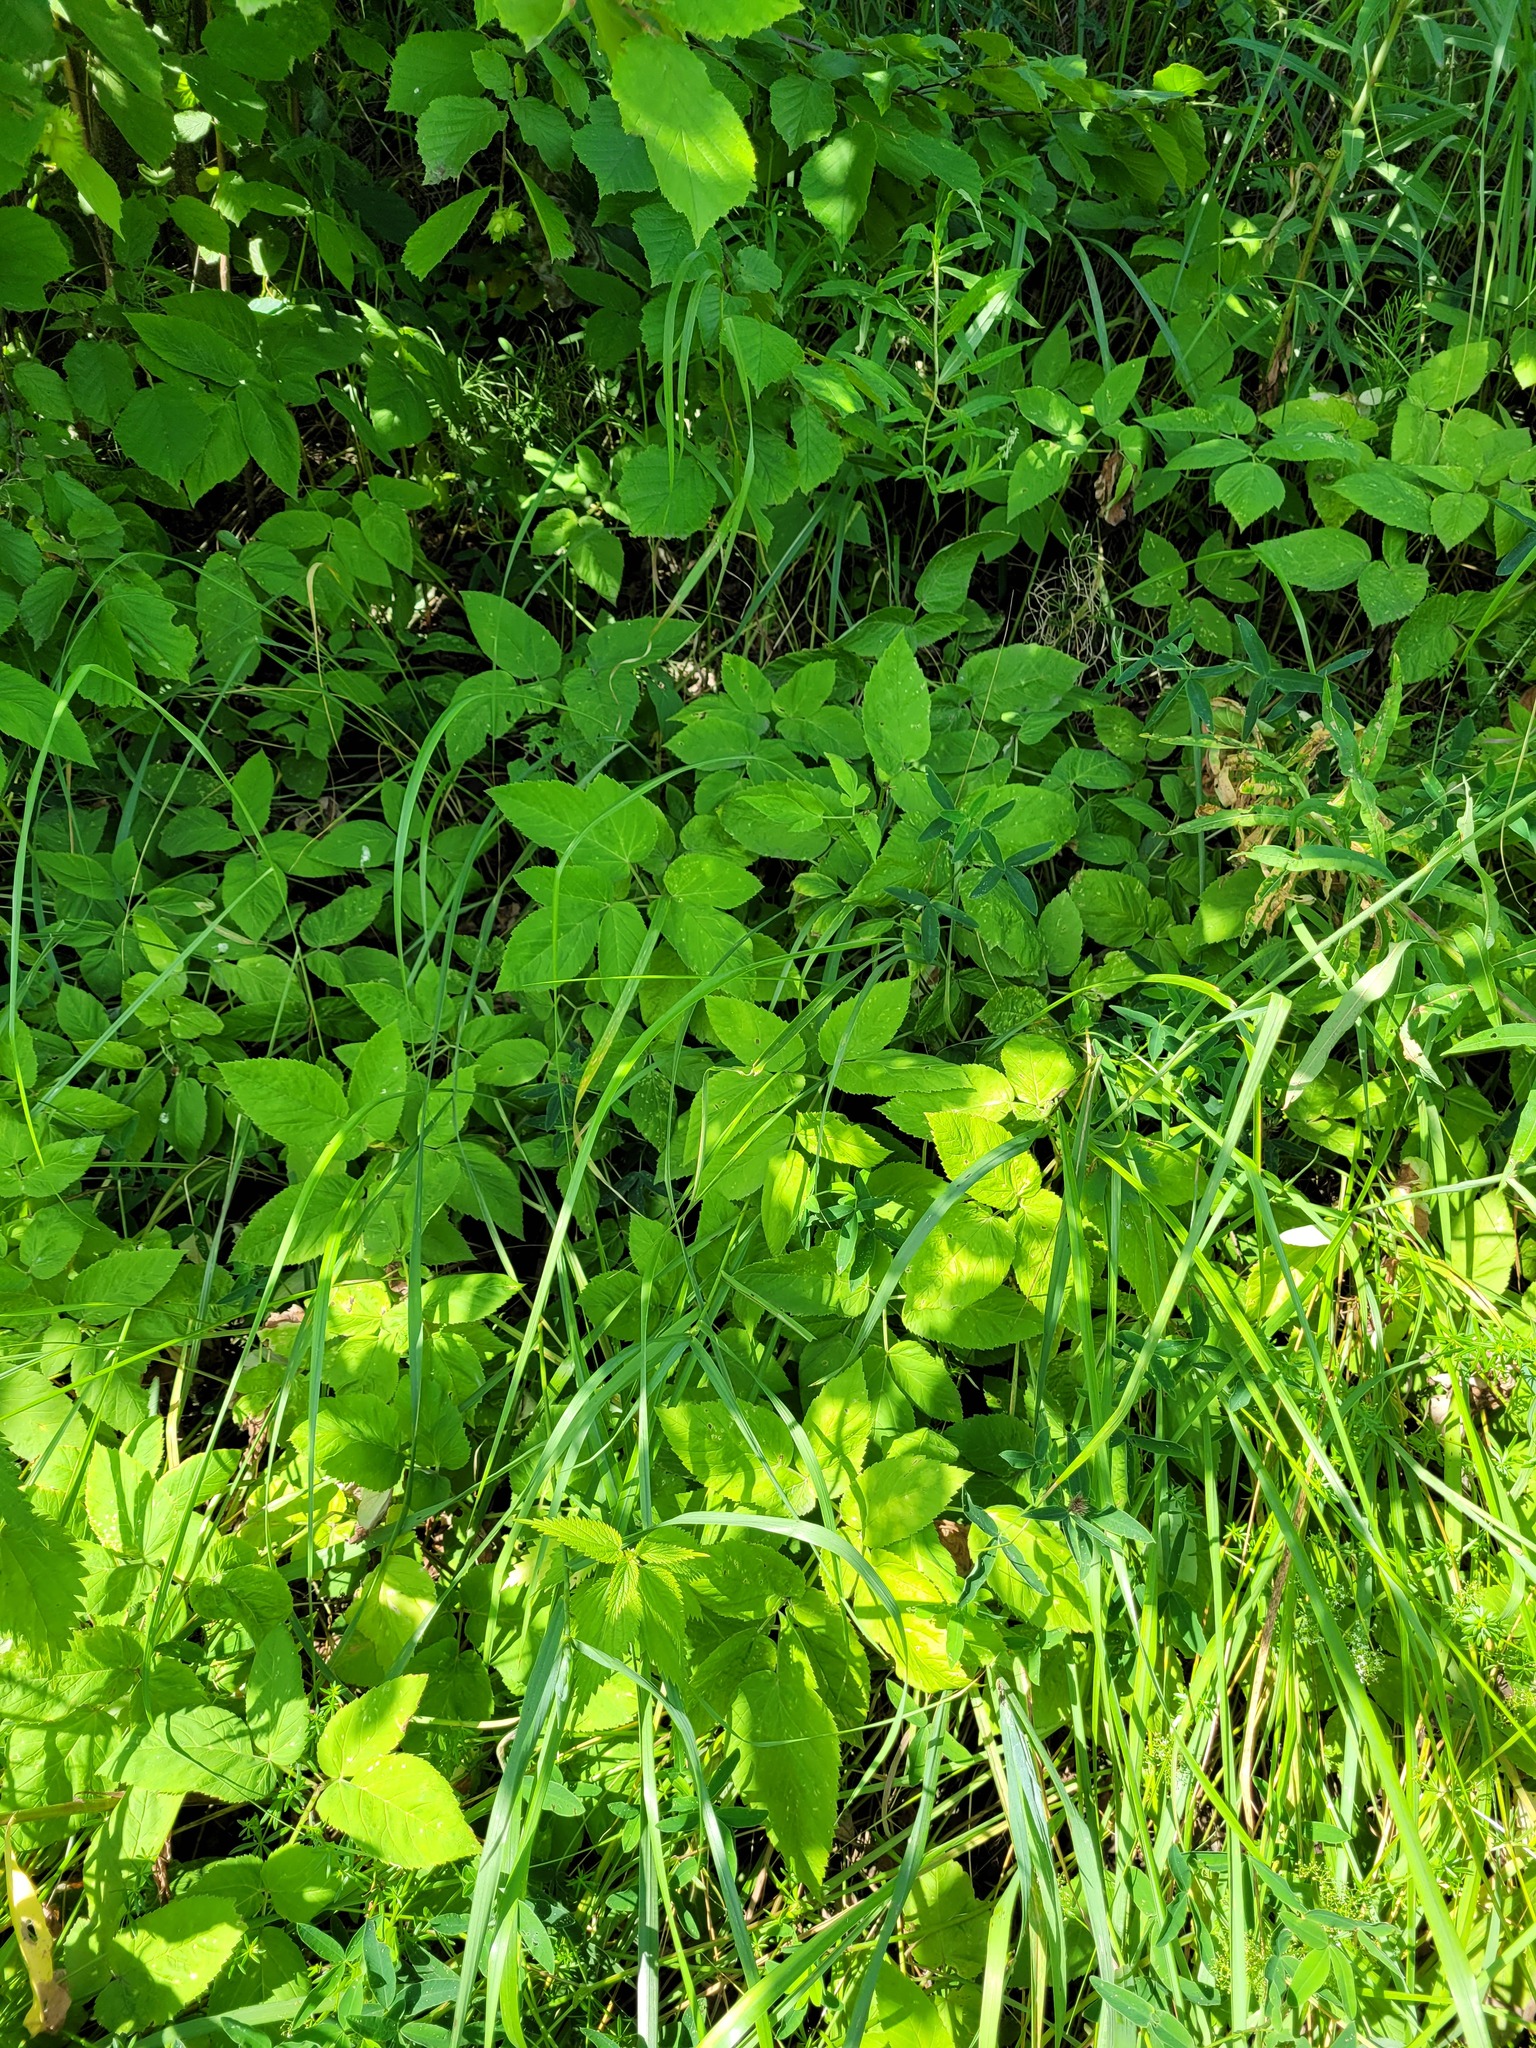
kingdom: Plantae
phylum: Tracheophyta
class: Magnoliopsida
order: Apiales
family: Apiaceae
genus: Aegopodium
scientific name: Aegopodium podagraria
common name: Ground-elder
